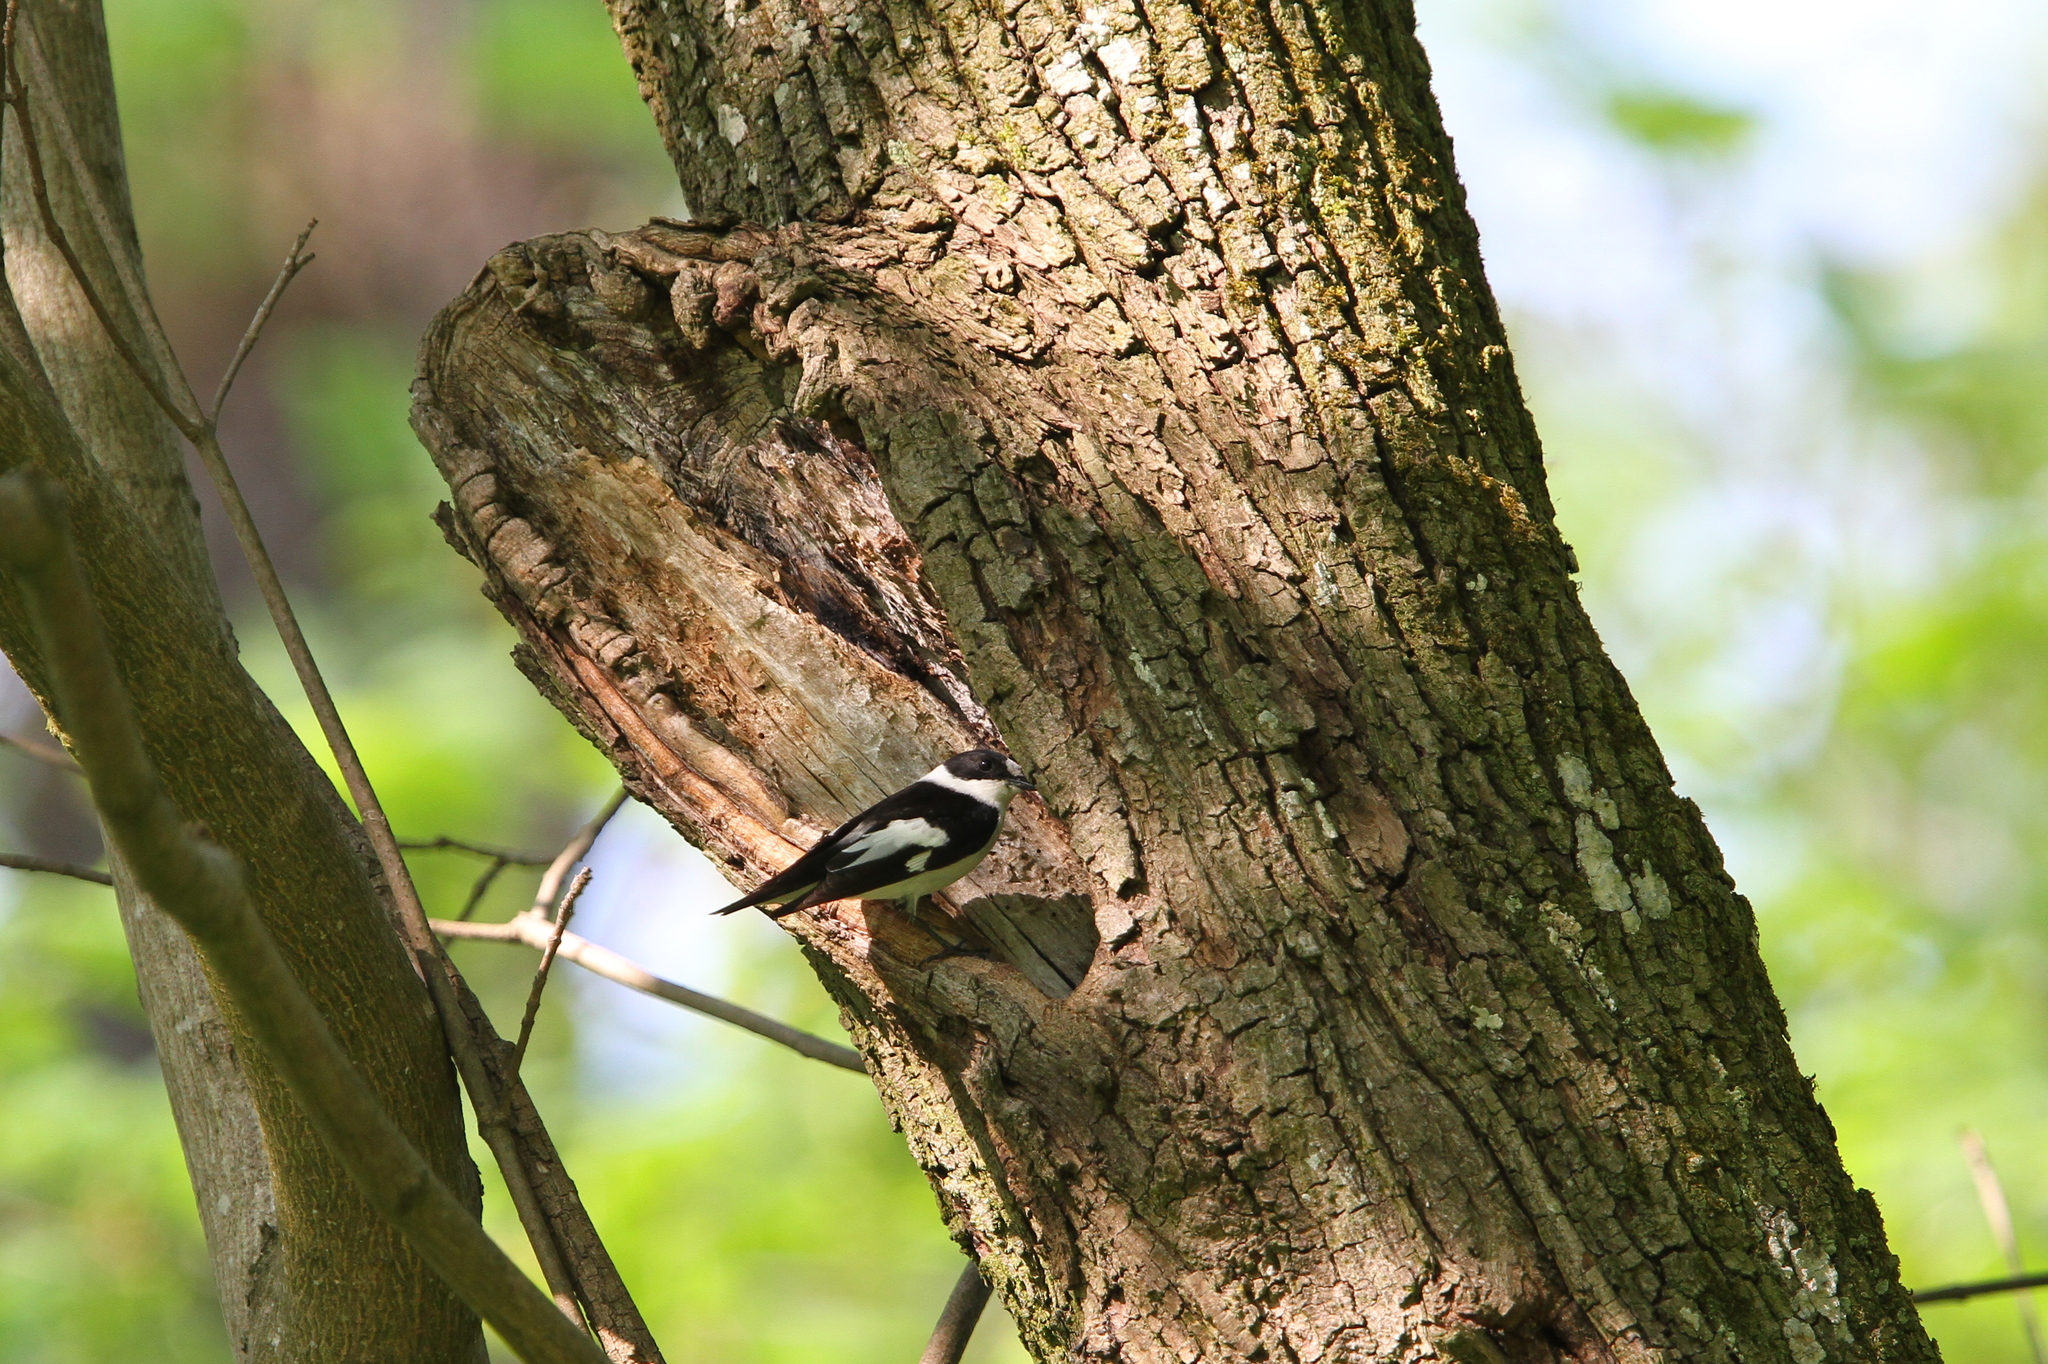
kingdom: Animalia
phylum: Chordata
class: Aves
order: Passeriformes
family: Muscicapidae
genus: Ficedula
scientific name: Ficedula albicollis
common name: Collared flycatcher
